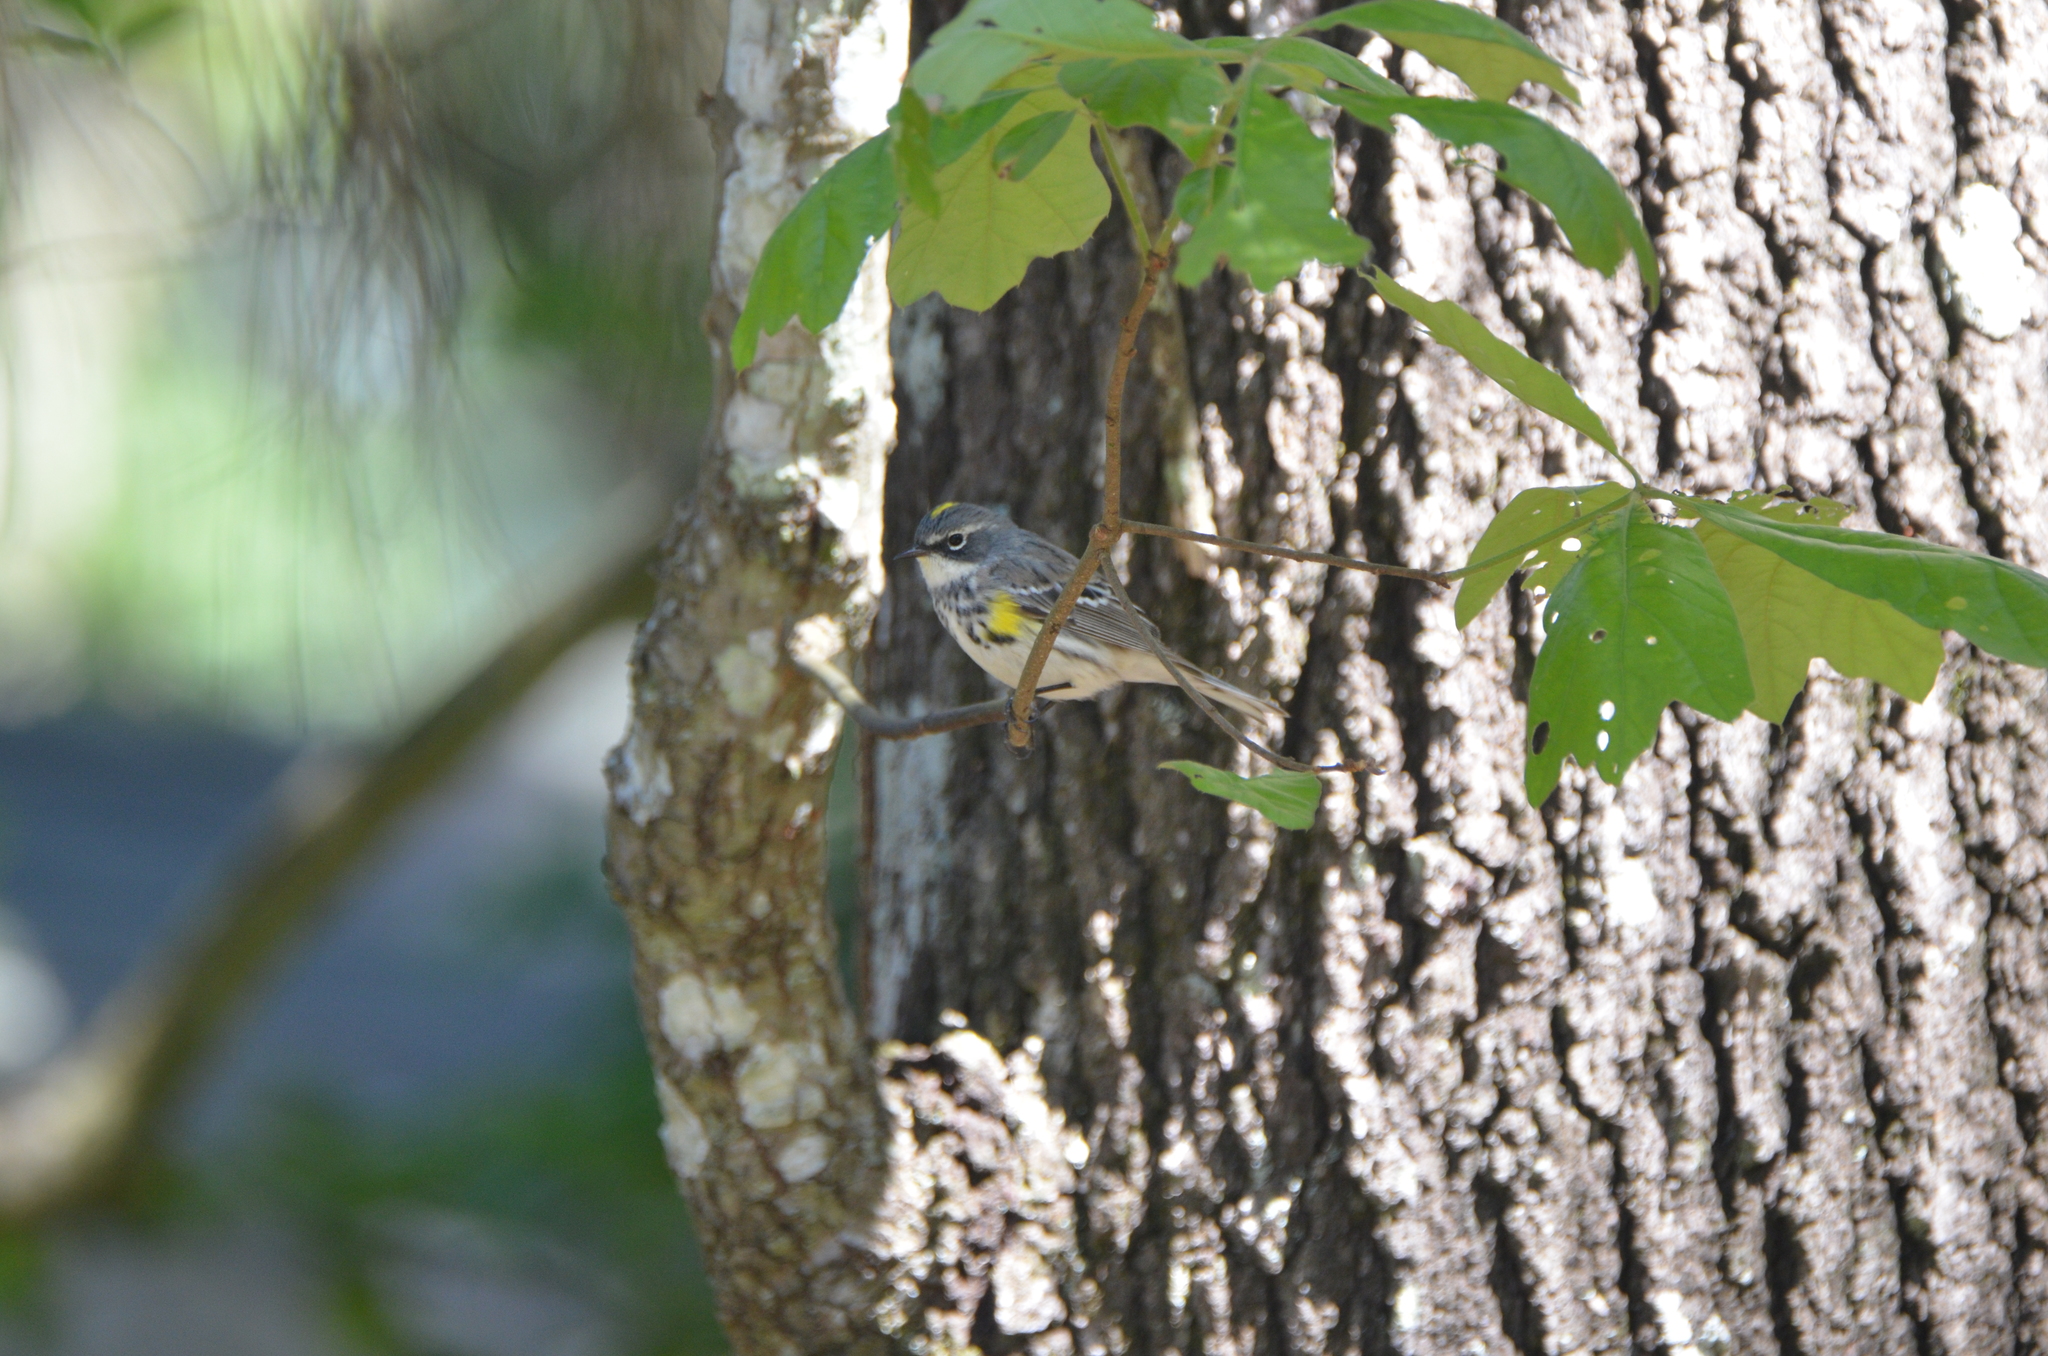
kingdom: Animalia
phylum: Chordata
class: Aves
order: Passeriformes
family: Parulidae
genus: Setophaga
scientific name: Setophaga coronata
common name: Myrtle warbler
